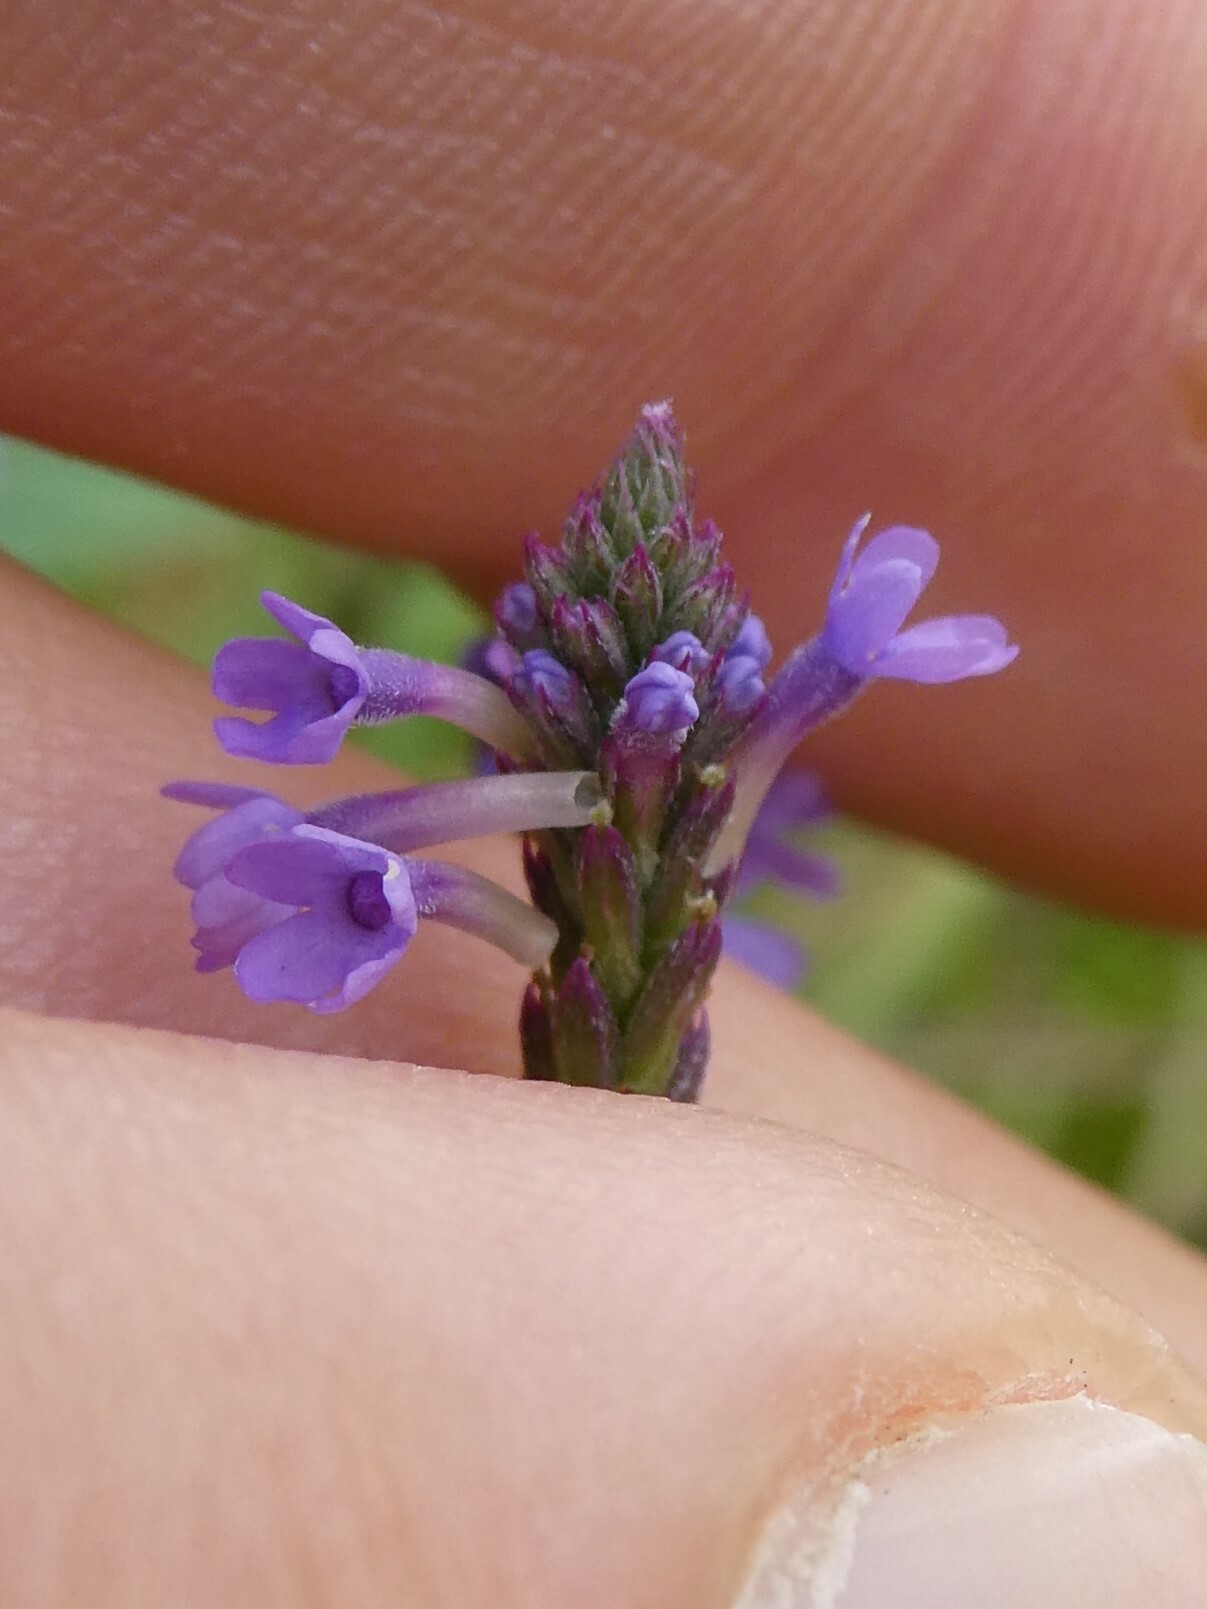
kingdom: Plantae
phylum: Tracheophyta
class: Magnoliopsida
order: Lamiales
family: Verbenaceae
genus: Verbena
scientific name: Verbena hastata
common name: American blue vervain
